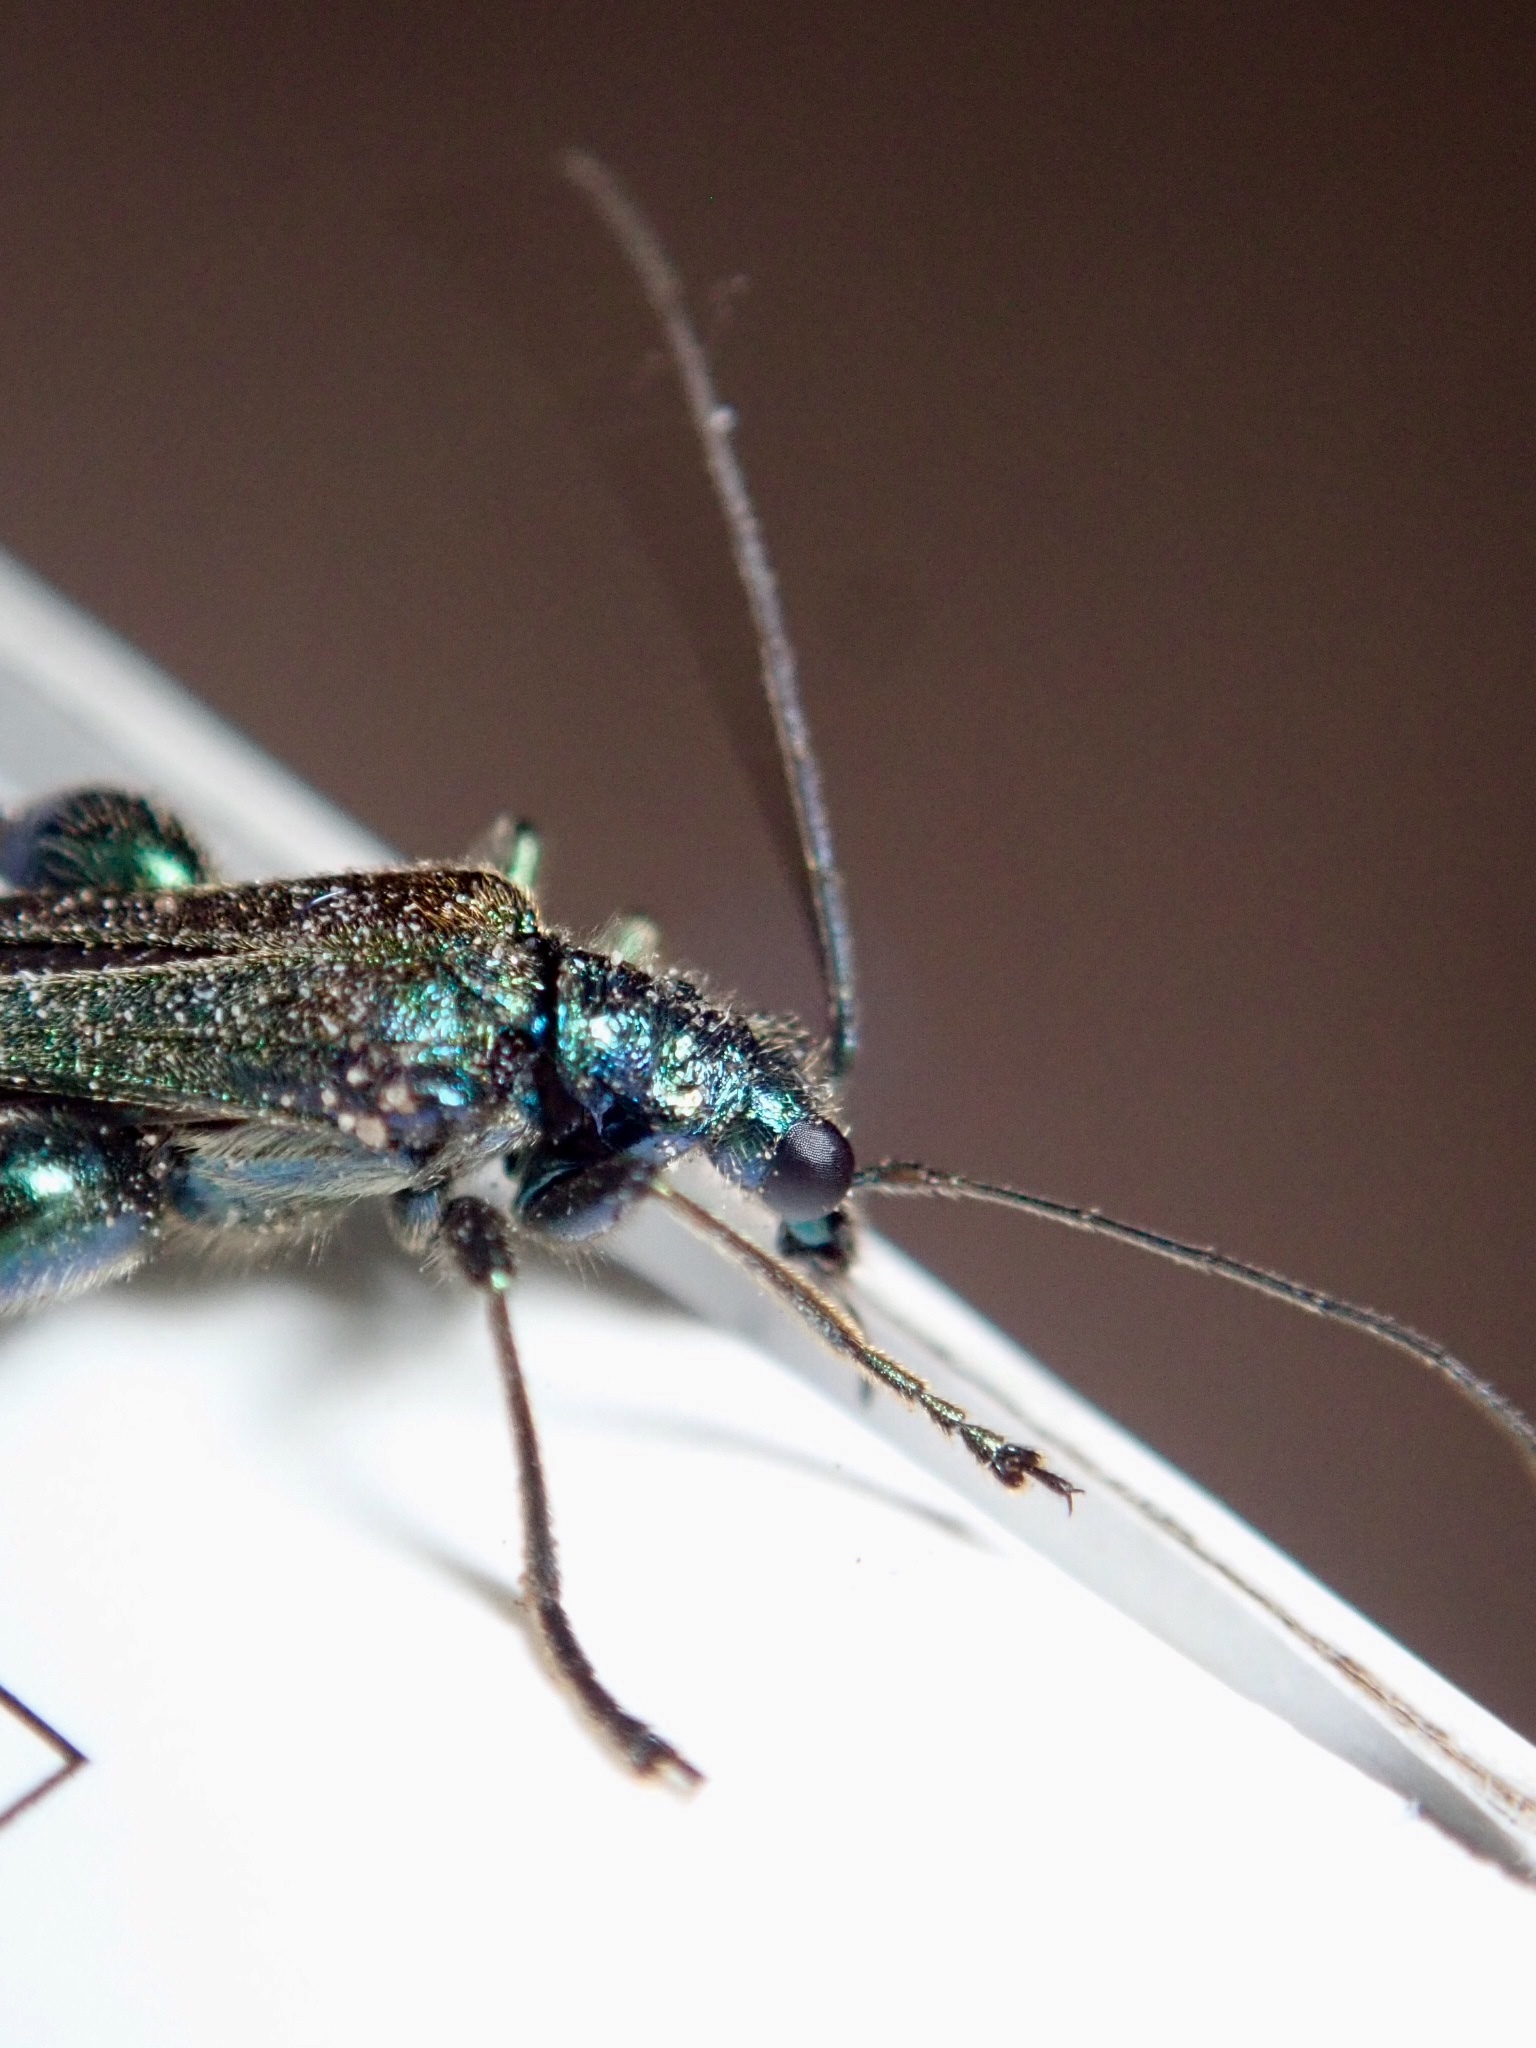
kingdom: Animalia
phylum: Arthropoda
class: Insecta
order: Coleoptera
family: Oedemeridae
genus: Oedemera
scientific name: Oedemera nobilis
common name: Swollen-thighed beetle
